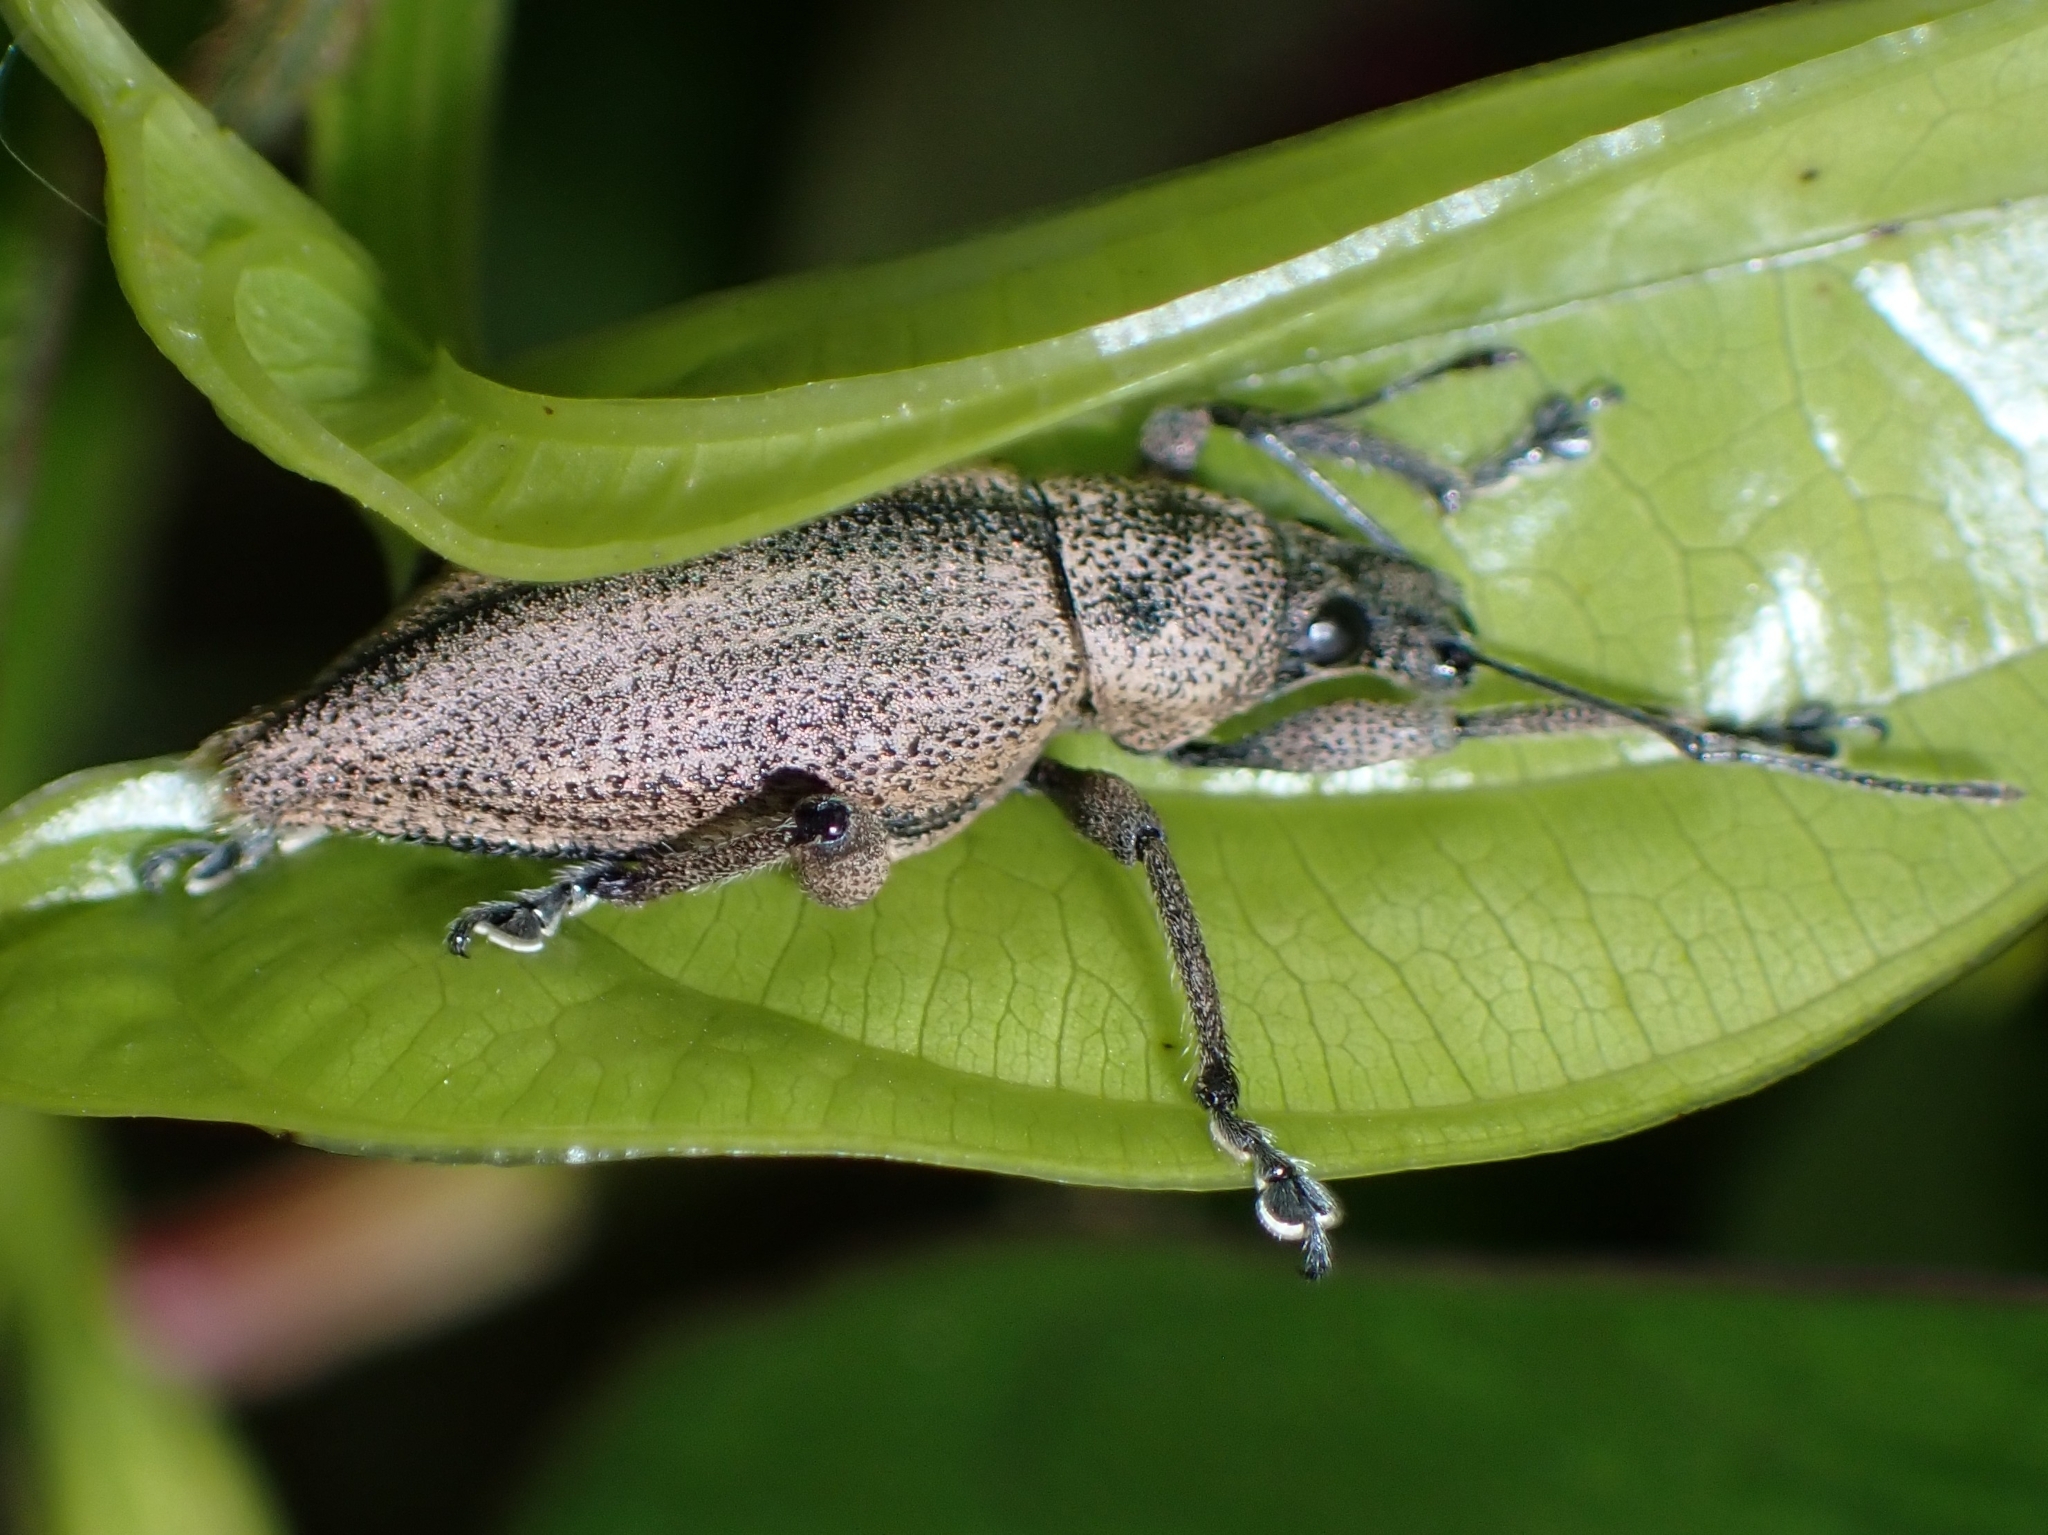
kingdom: Animalia
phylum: Arthropoda
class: Insecta
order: Coleoptera
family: Curculionidae
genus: Elytrurus
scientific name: Elytrurus marginatus
